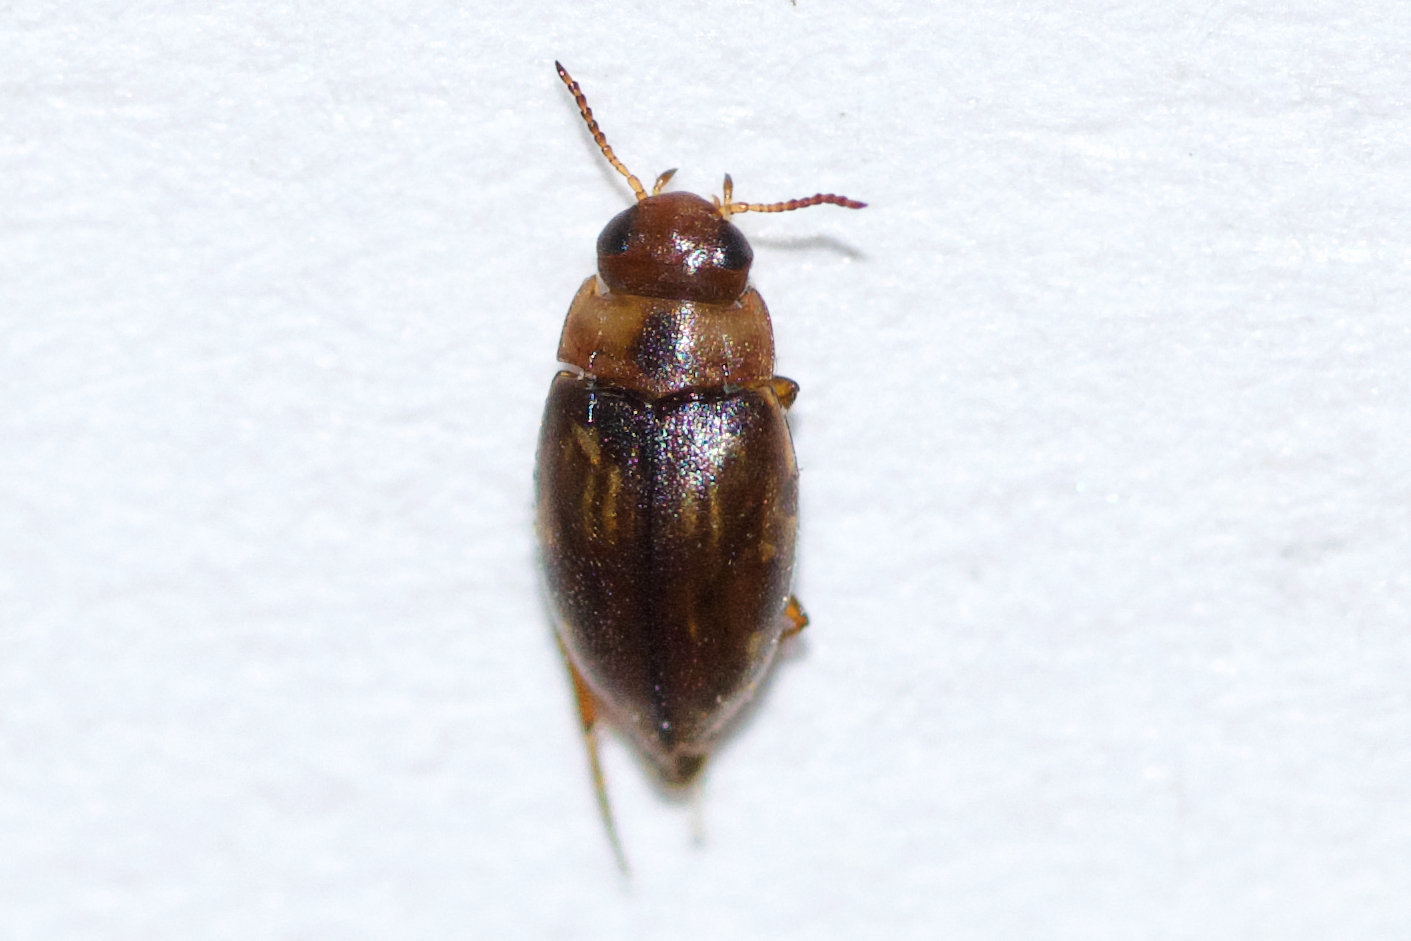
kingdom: Animalia
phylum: Arthropoda
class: Insecta
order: Coleoptera
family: Dytiscidae
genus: Liodessus
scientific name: Liodessus affinis
